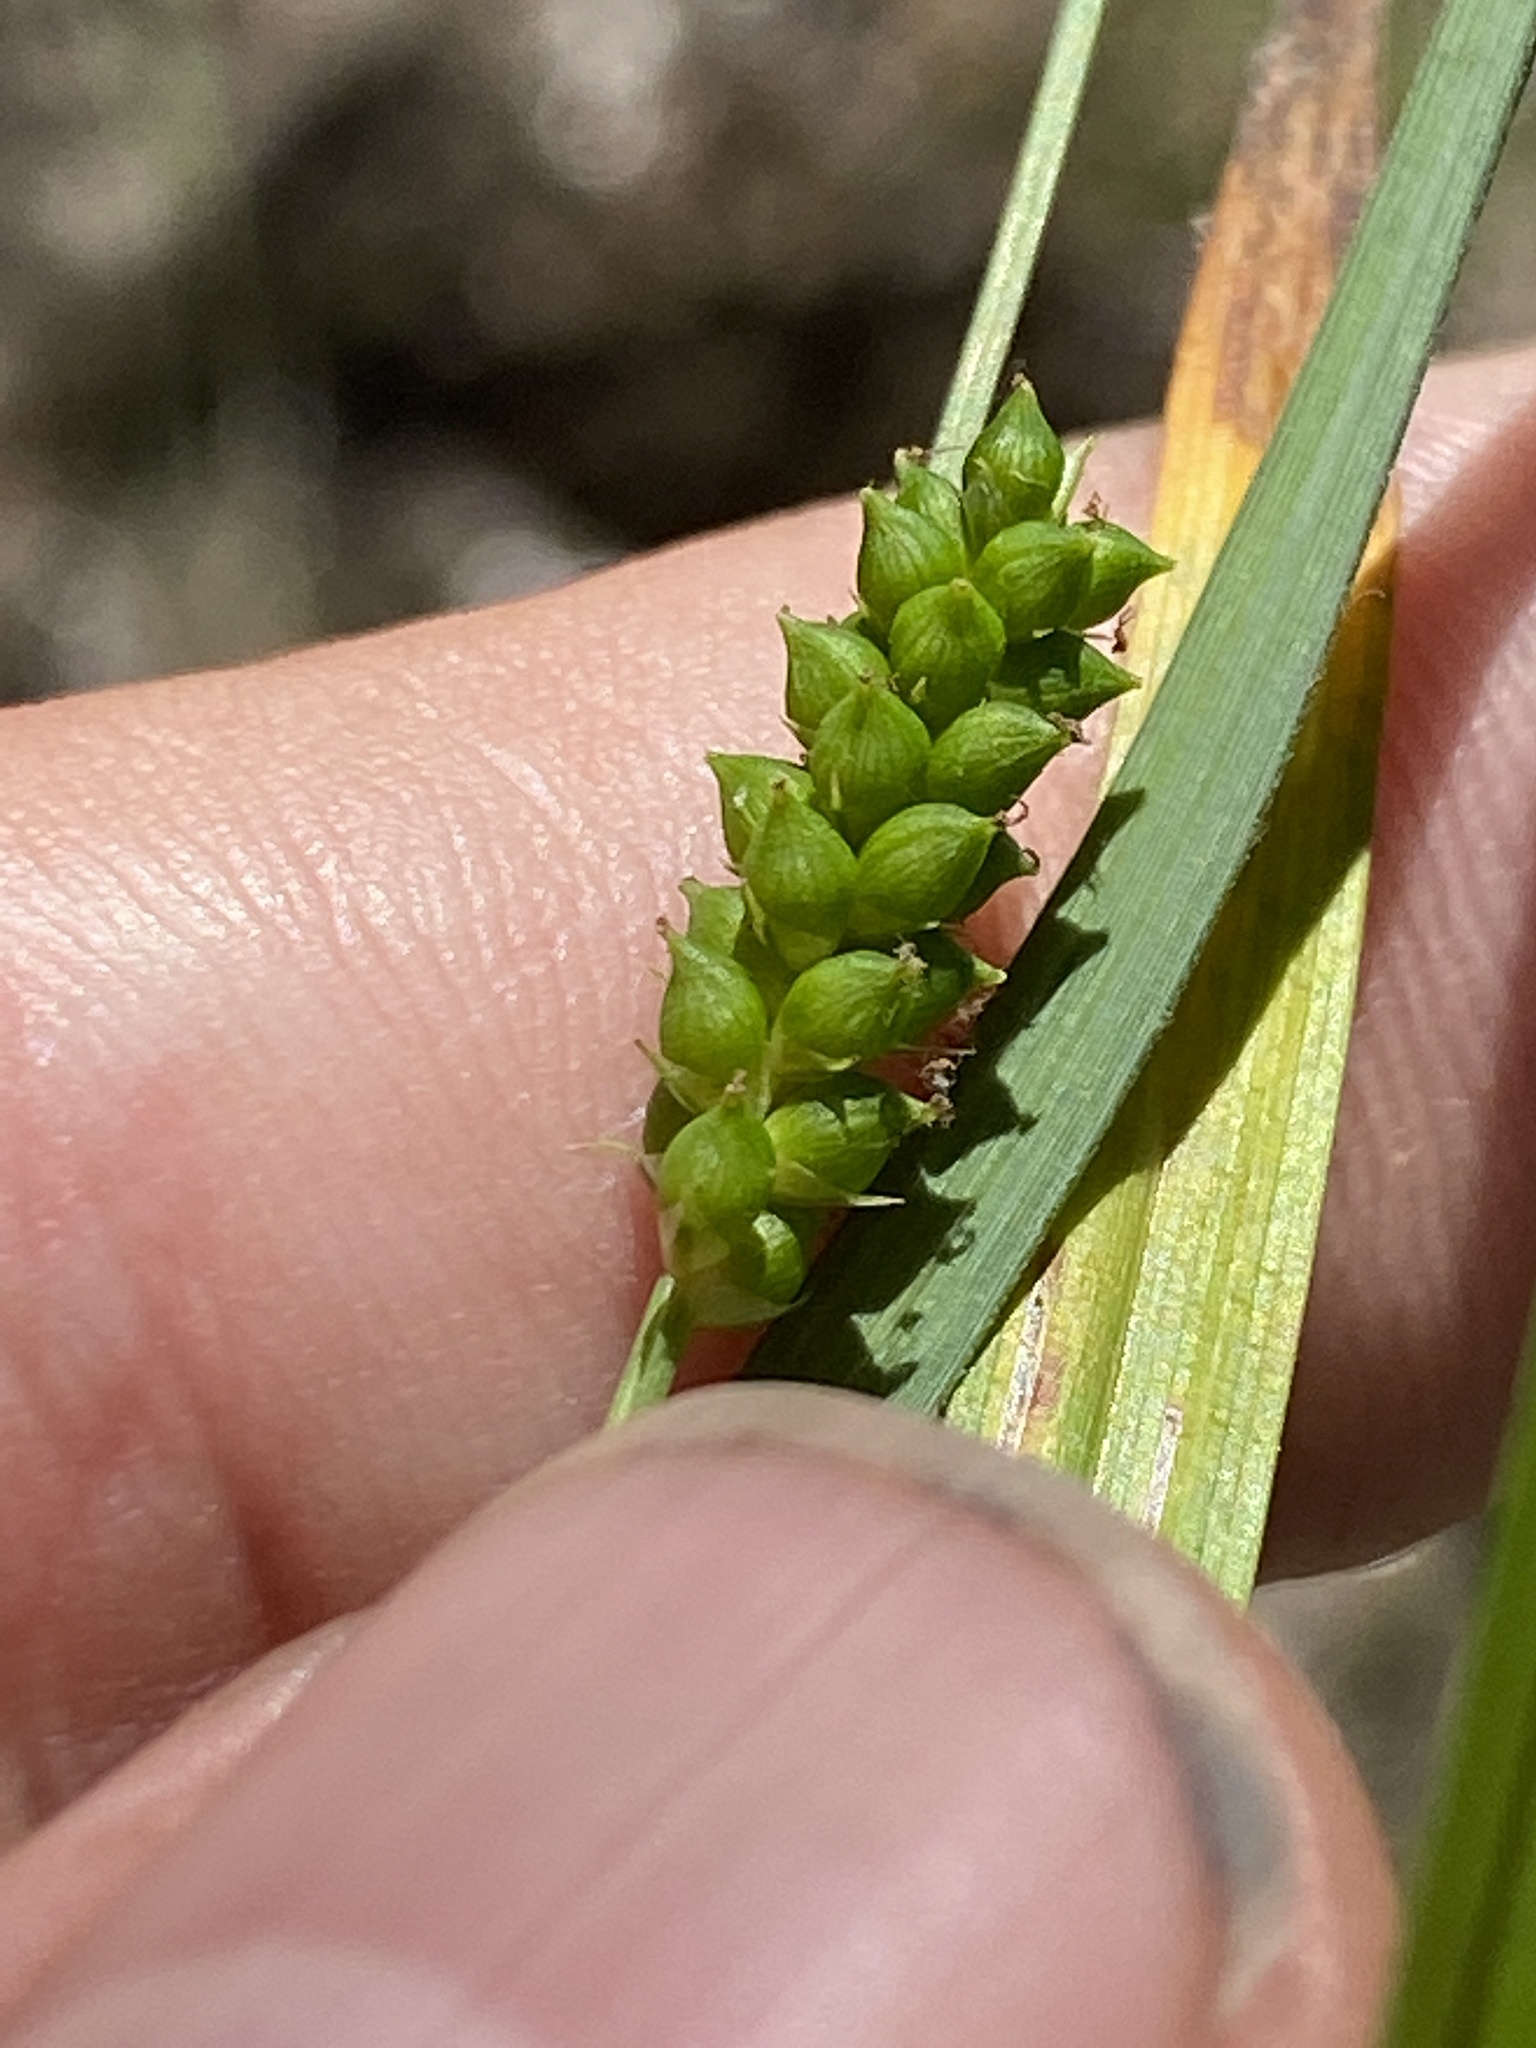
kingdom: Plantae
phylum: Tracheophyta
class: Liliopsida
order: Poales
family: Cyperaceae
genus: Carex
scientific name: Carex granularis
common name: Granular sedge
